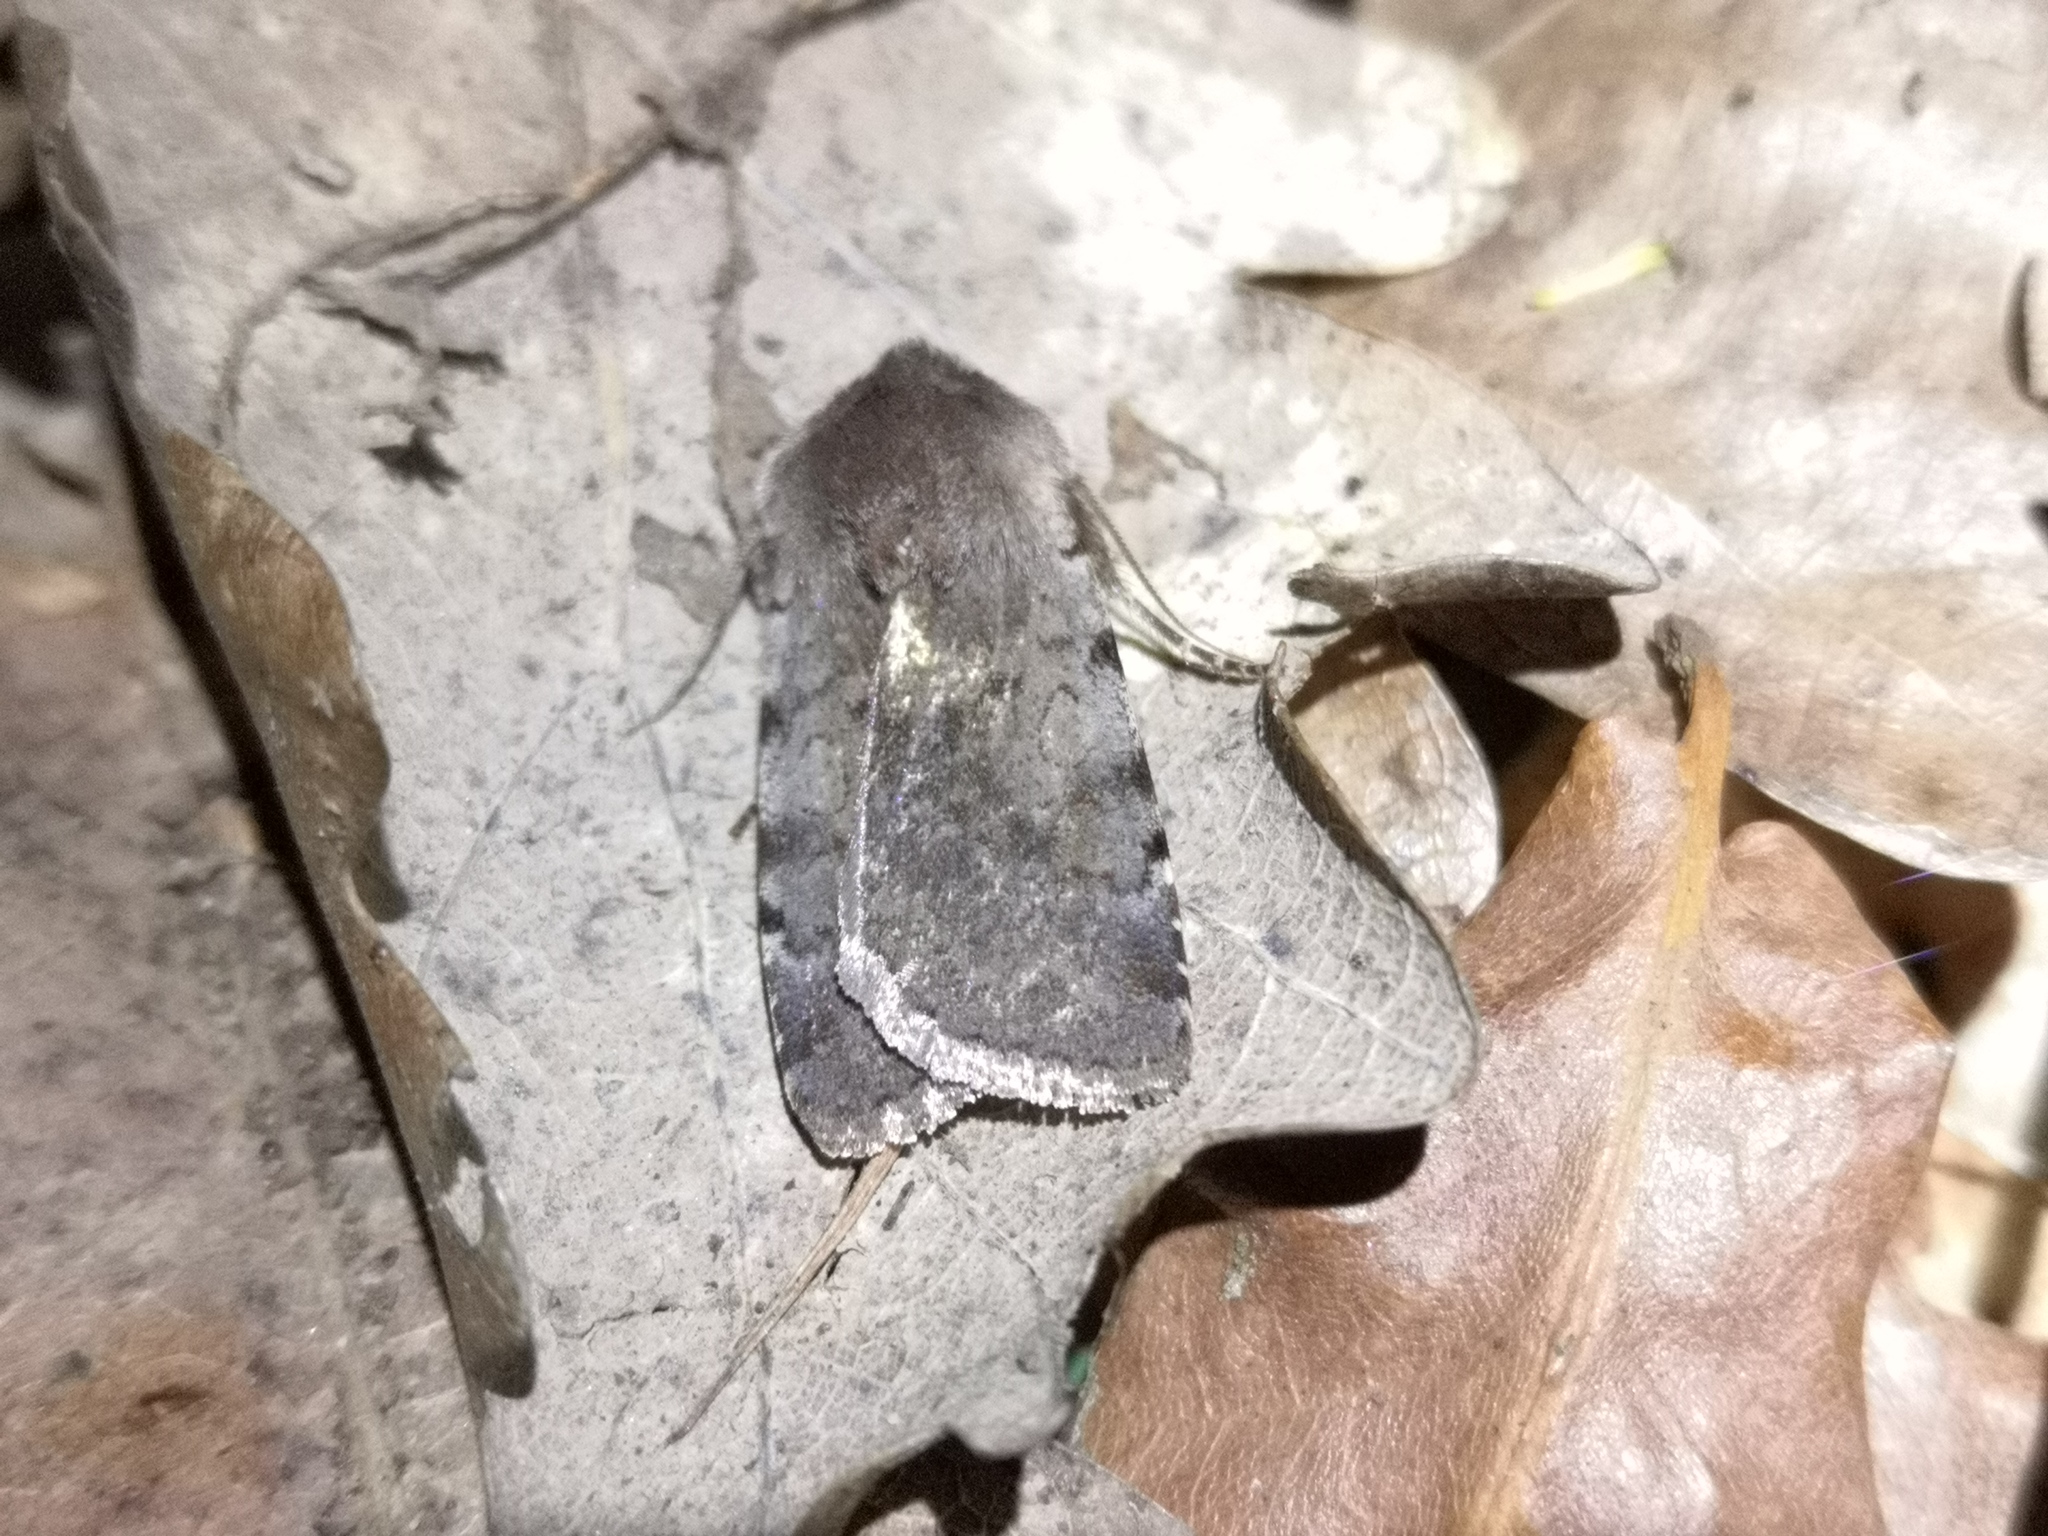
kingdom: Animalia
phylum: Arthropoda
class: Insecta
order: Lepidoptera
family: Noctuidae
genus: Cerastis
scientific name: Cerastis rubricosa
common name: Red chestnut
